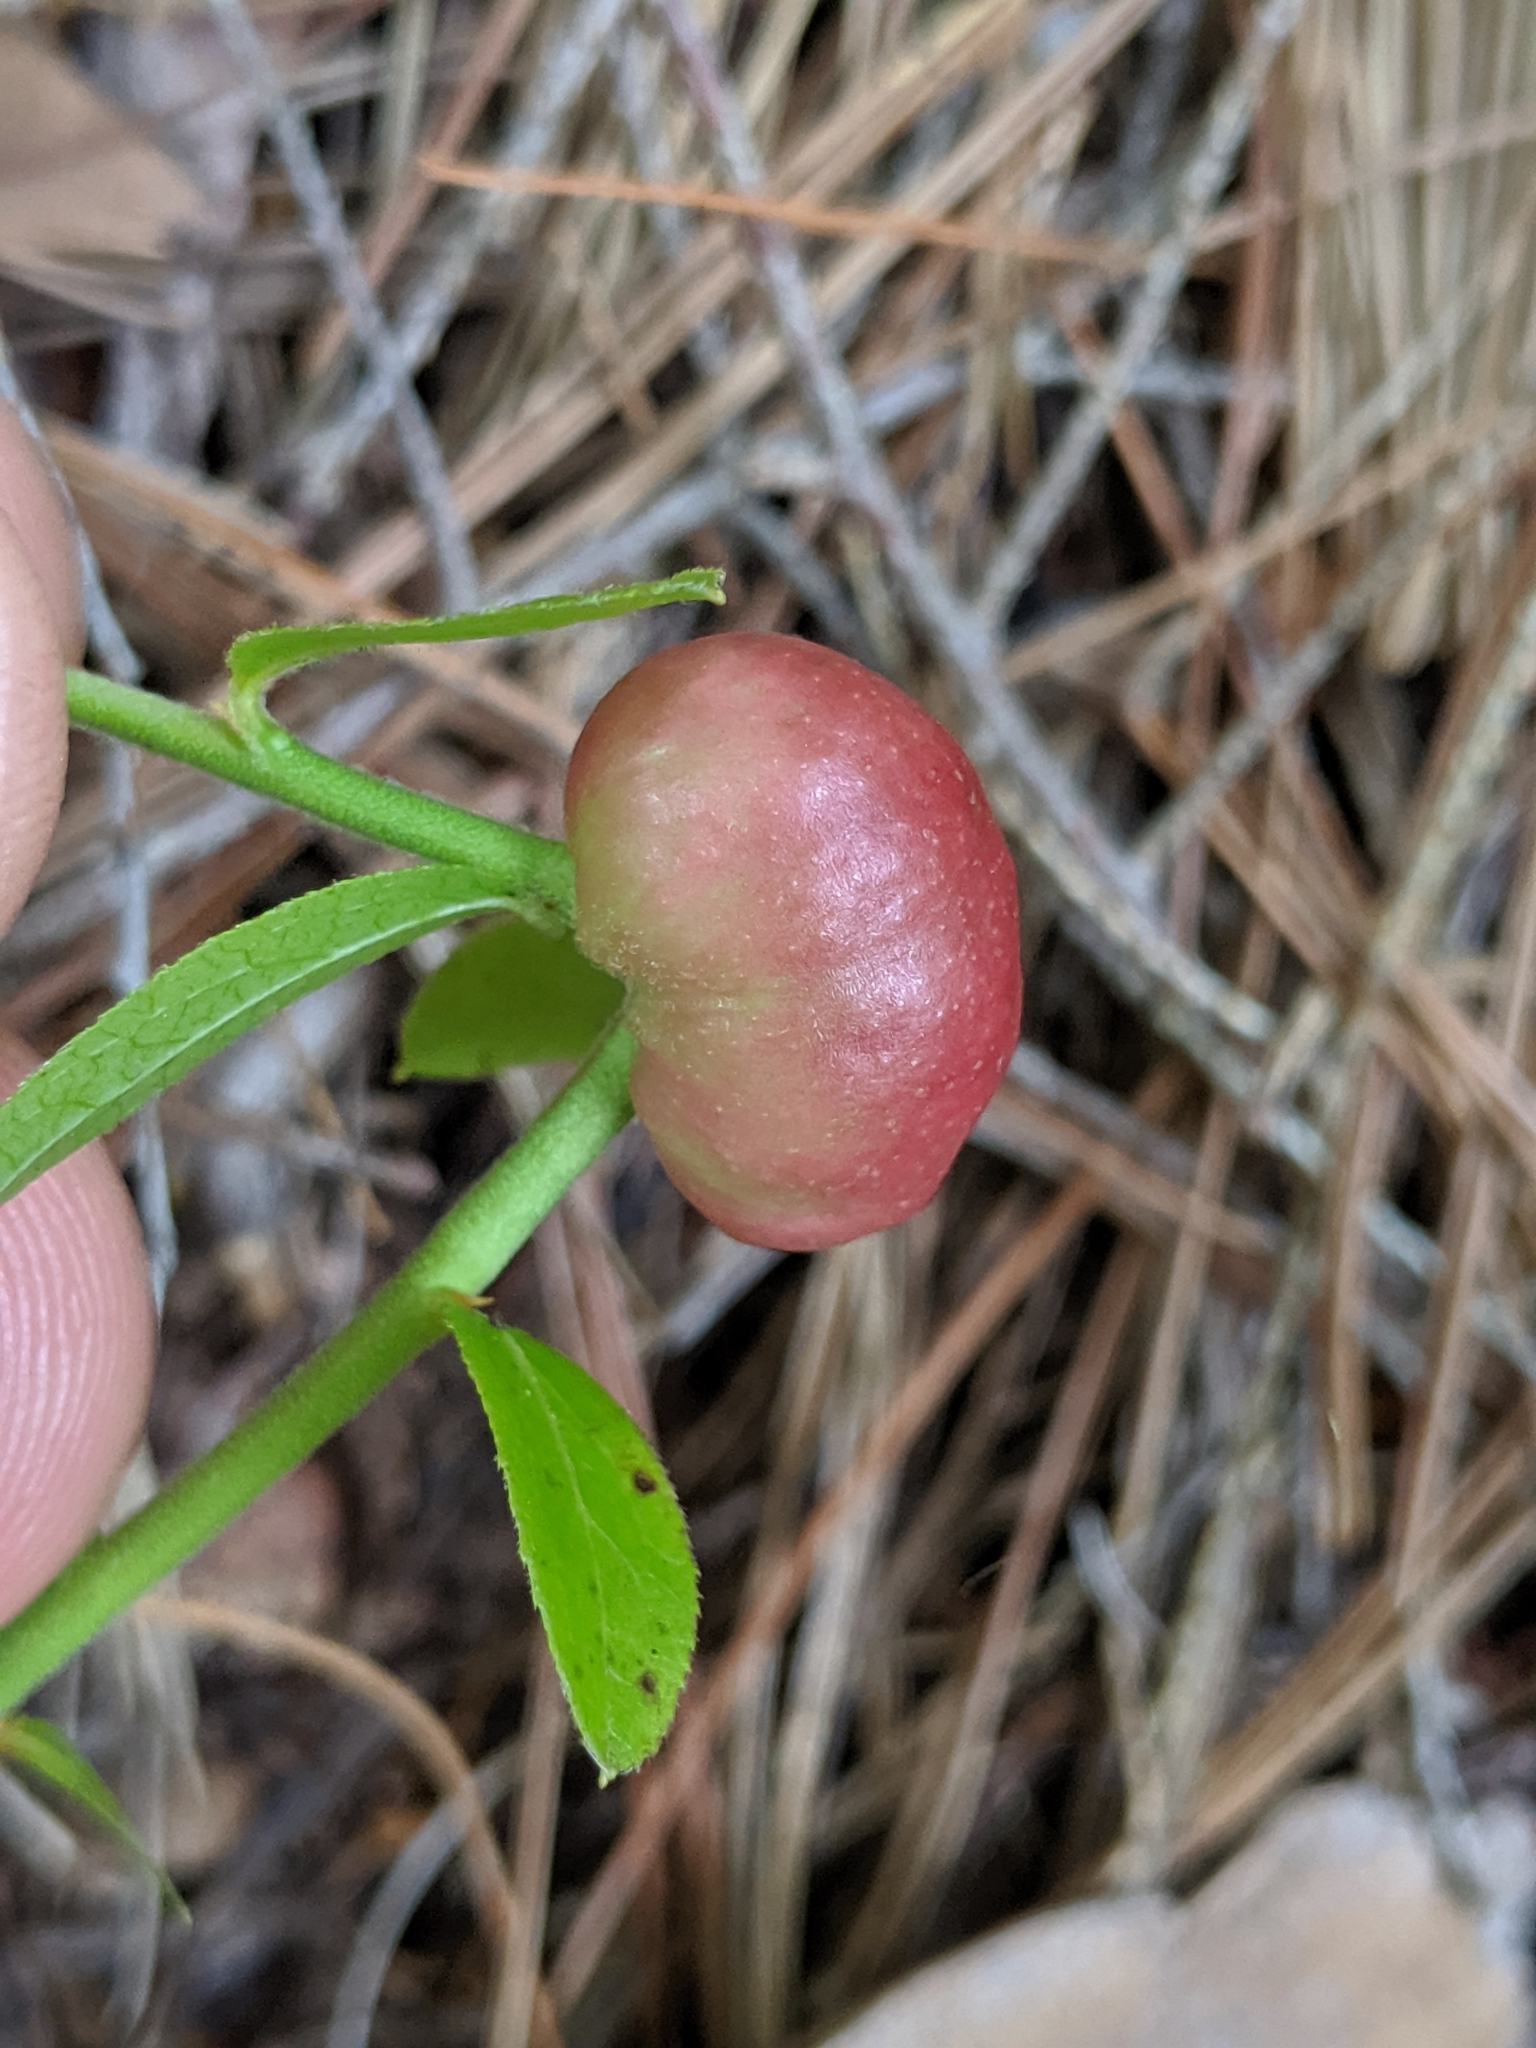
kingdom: Animalia
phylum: Arthropoda
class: Insecta
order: Hymenoptera
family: Pteromalidae
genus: Hemadas
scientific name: Hemadas nubilipennis
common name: Blueberry stem gall wasp
